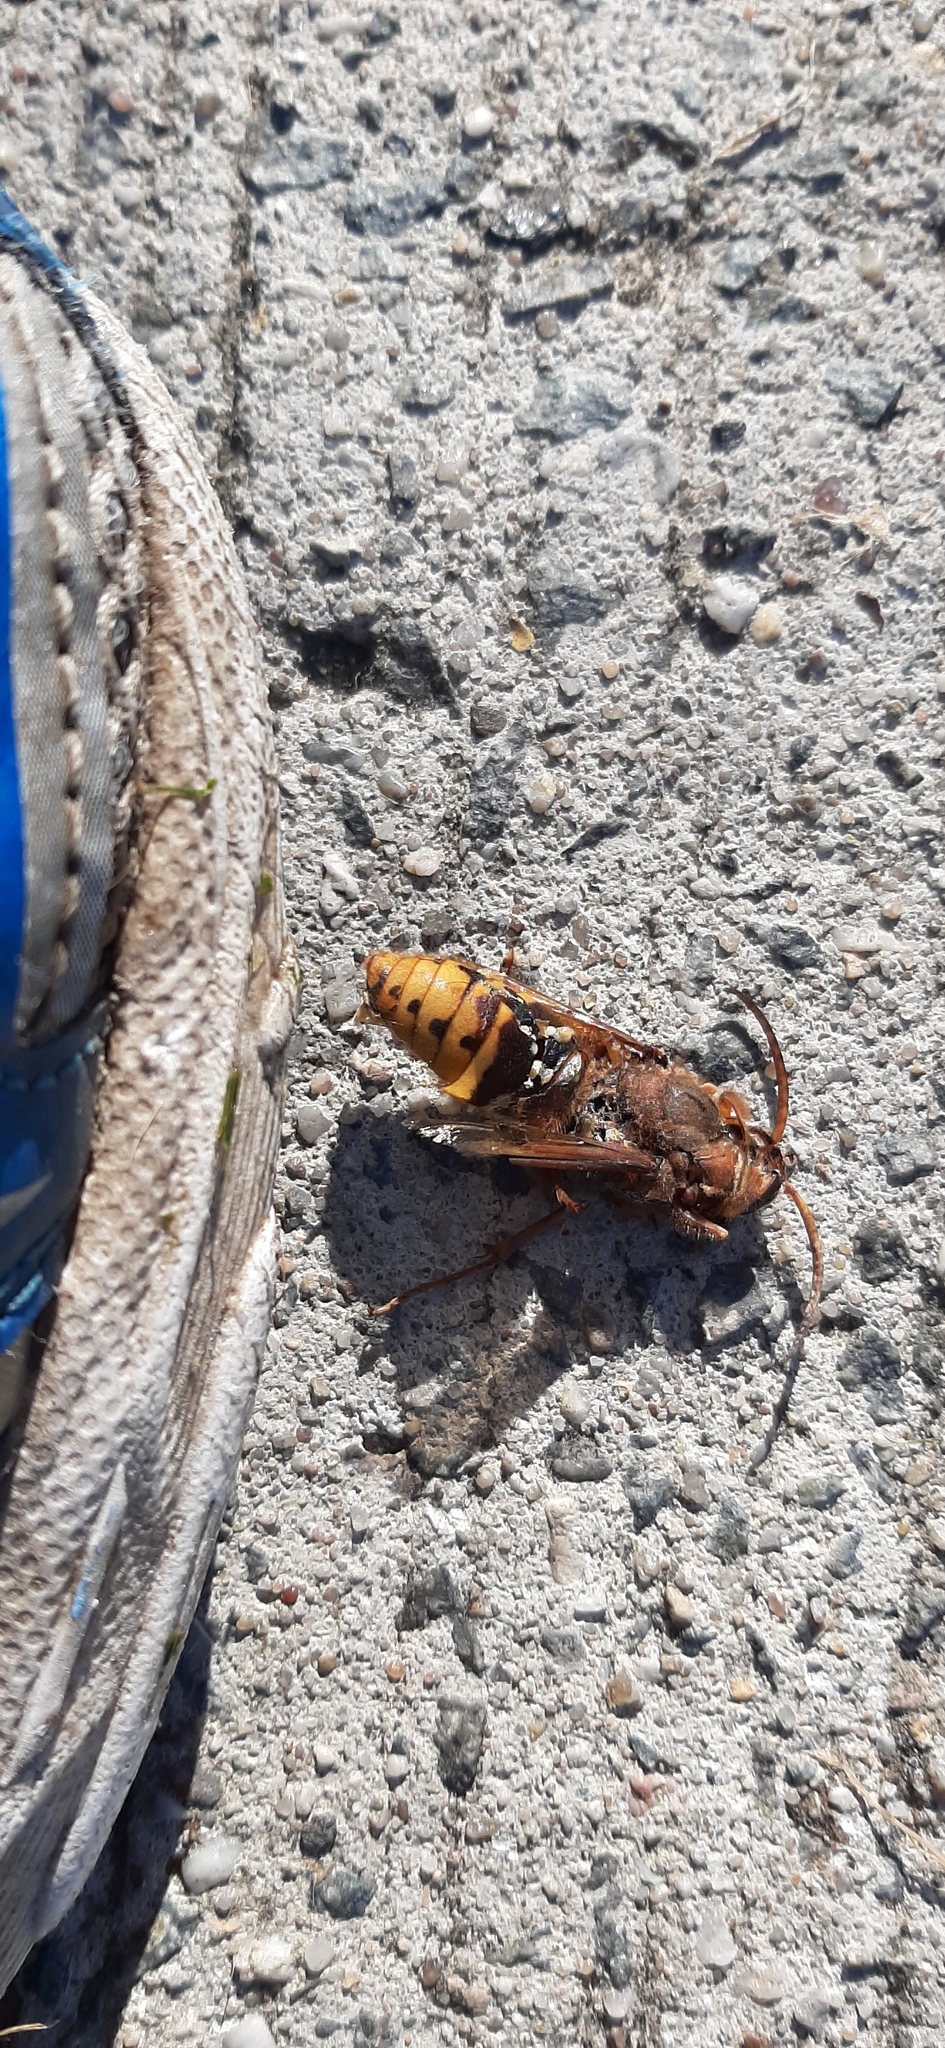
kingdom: Animalia
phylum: Arthropoda
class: Insecta
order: Hymenoptera
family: Vespidae
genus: Vespa
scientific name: Vespa crabro
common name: Hornet
